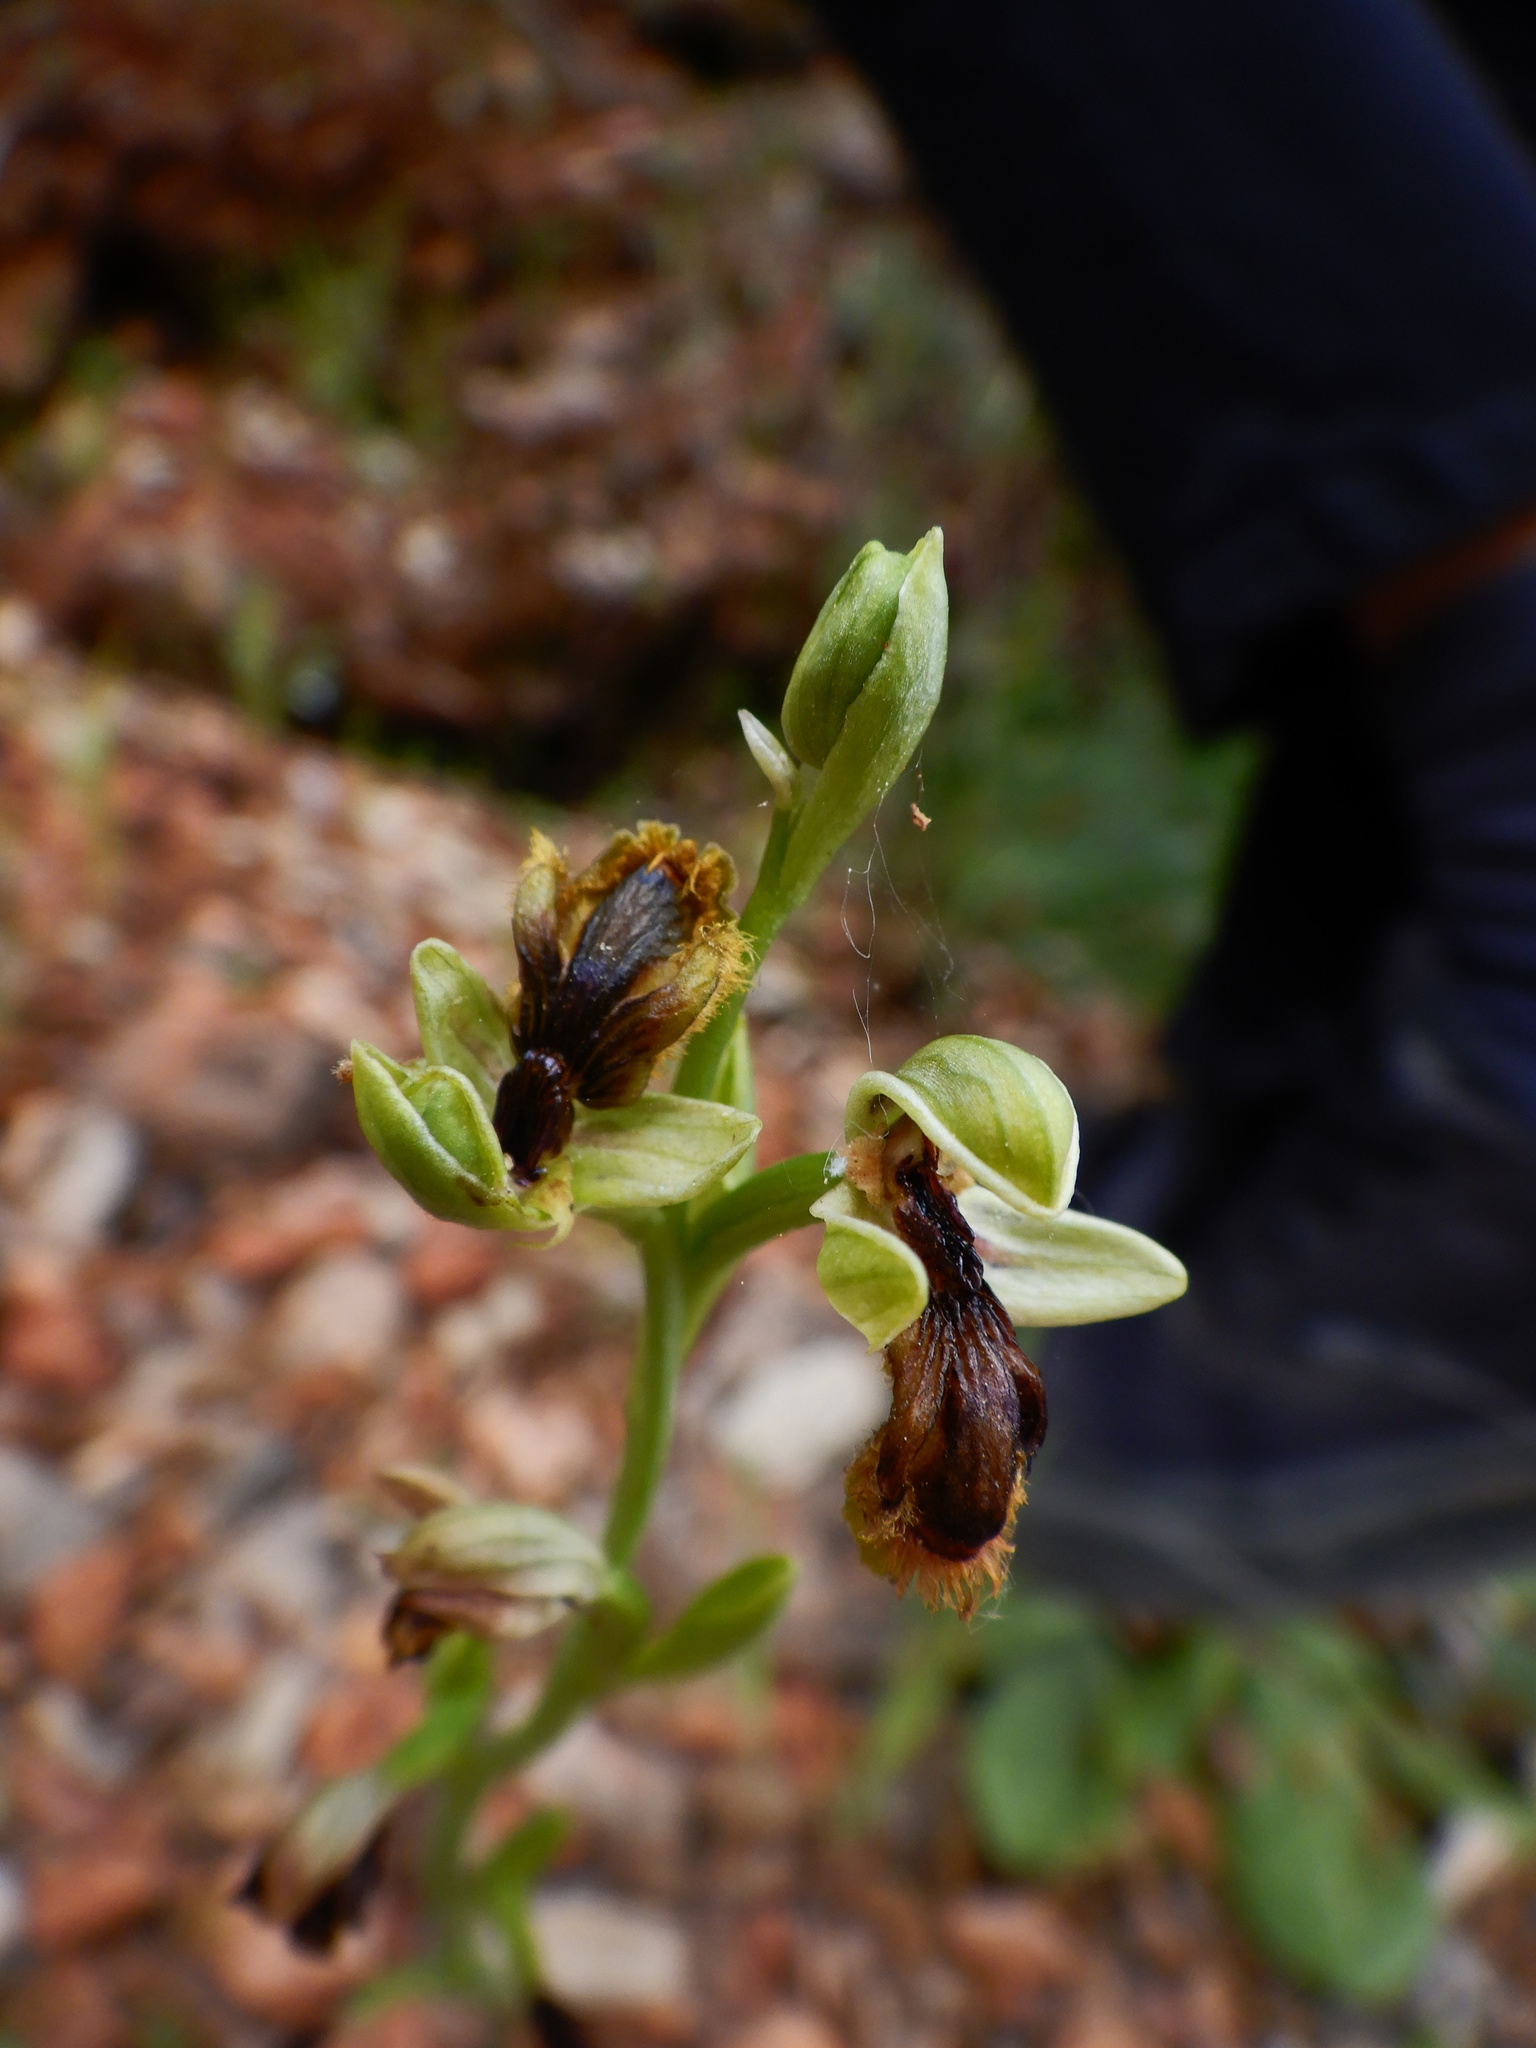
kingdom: Plantae
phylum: Tracheophyta
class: Liliopsida
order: Asparagales
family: Orchidaceae
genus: Ophrys
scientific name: Ophrys speculum
